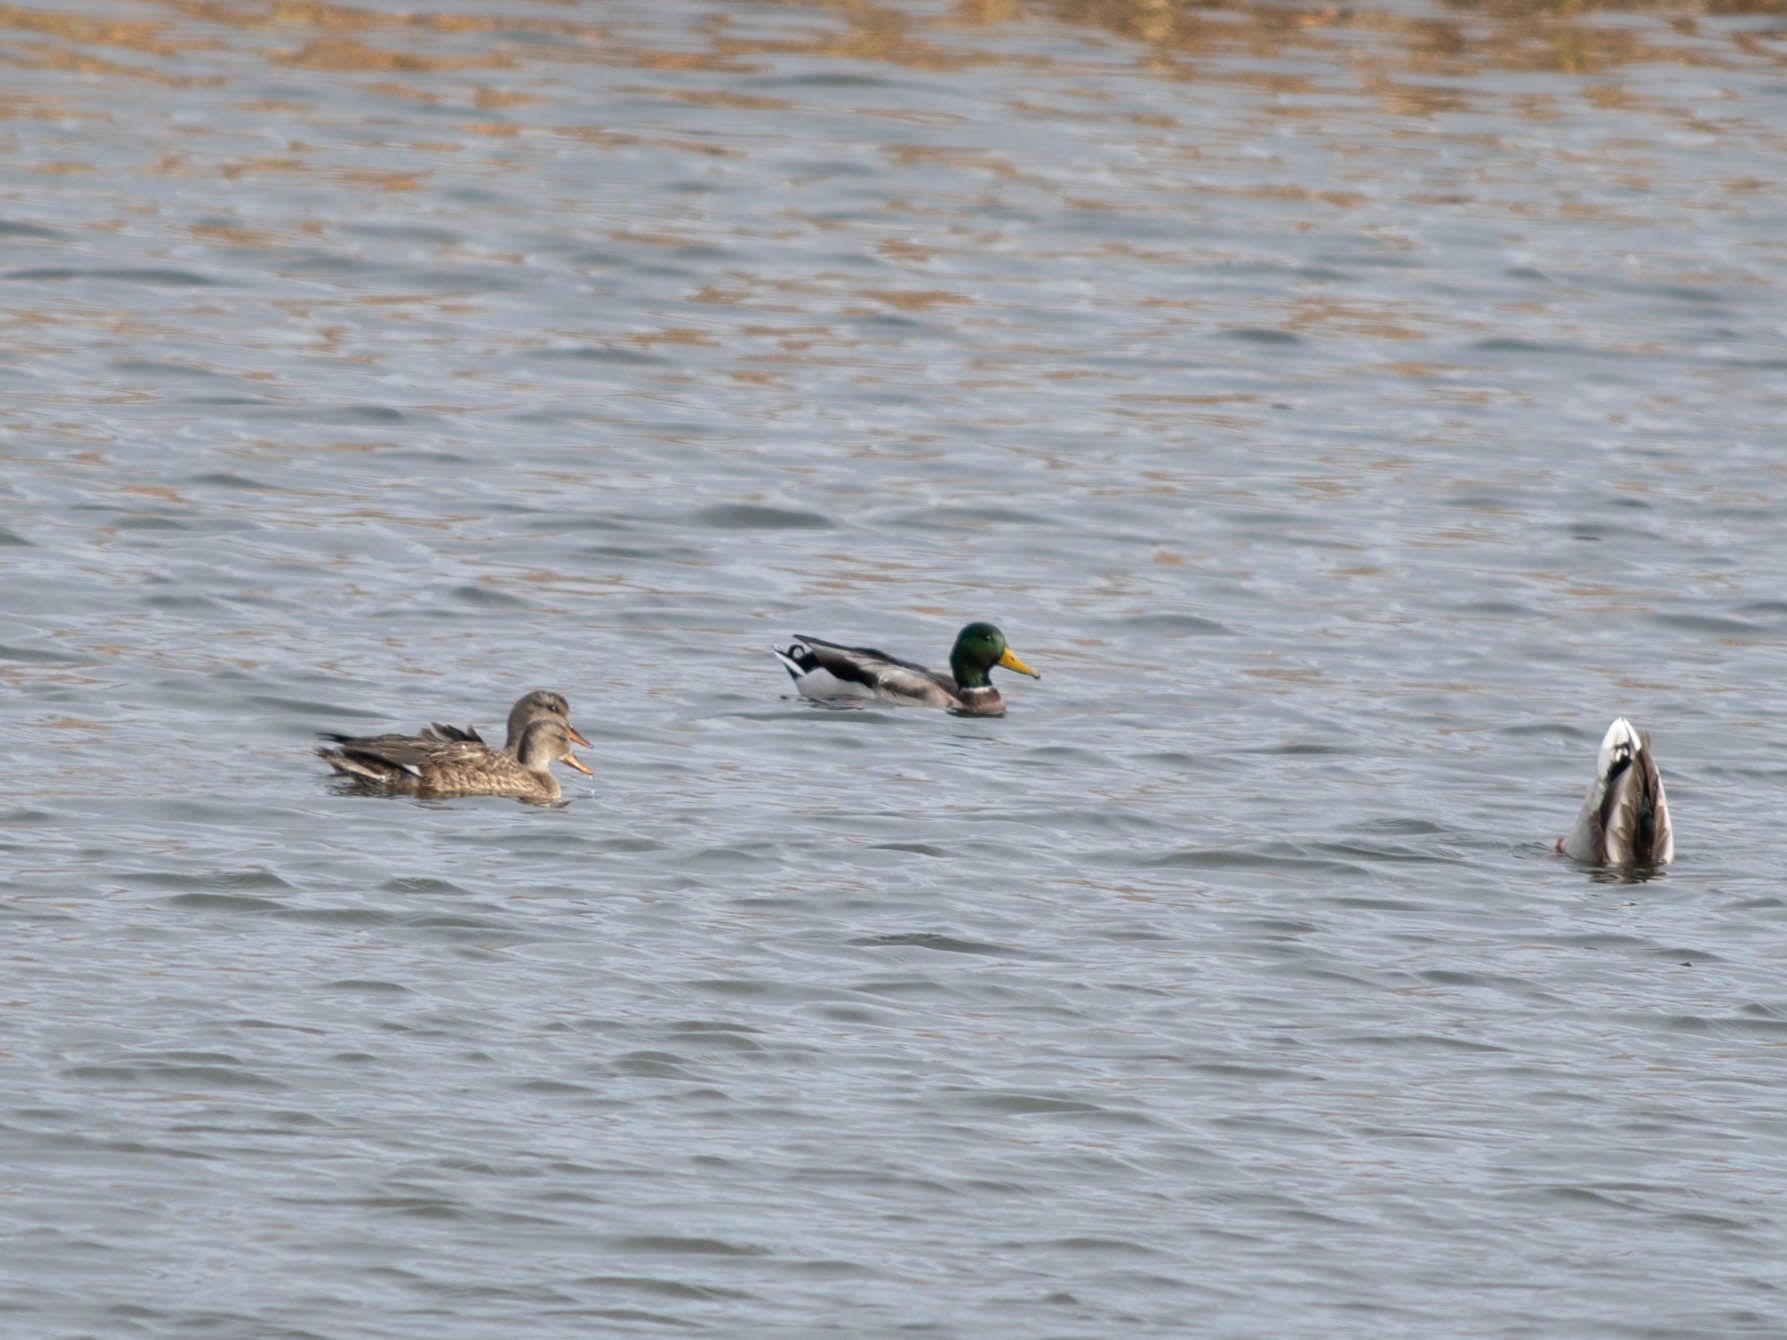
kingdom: Animalia
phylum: Chordata
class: Aves
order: Anseriformes
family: Anatidae
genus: Anas
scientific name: Anas platyrhynchos
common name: Mallard
